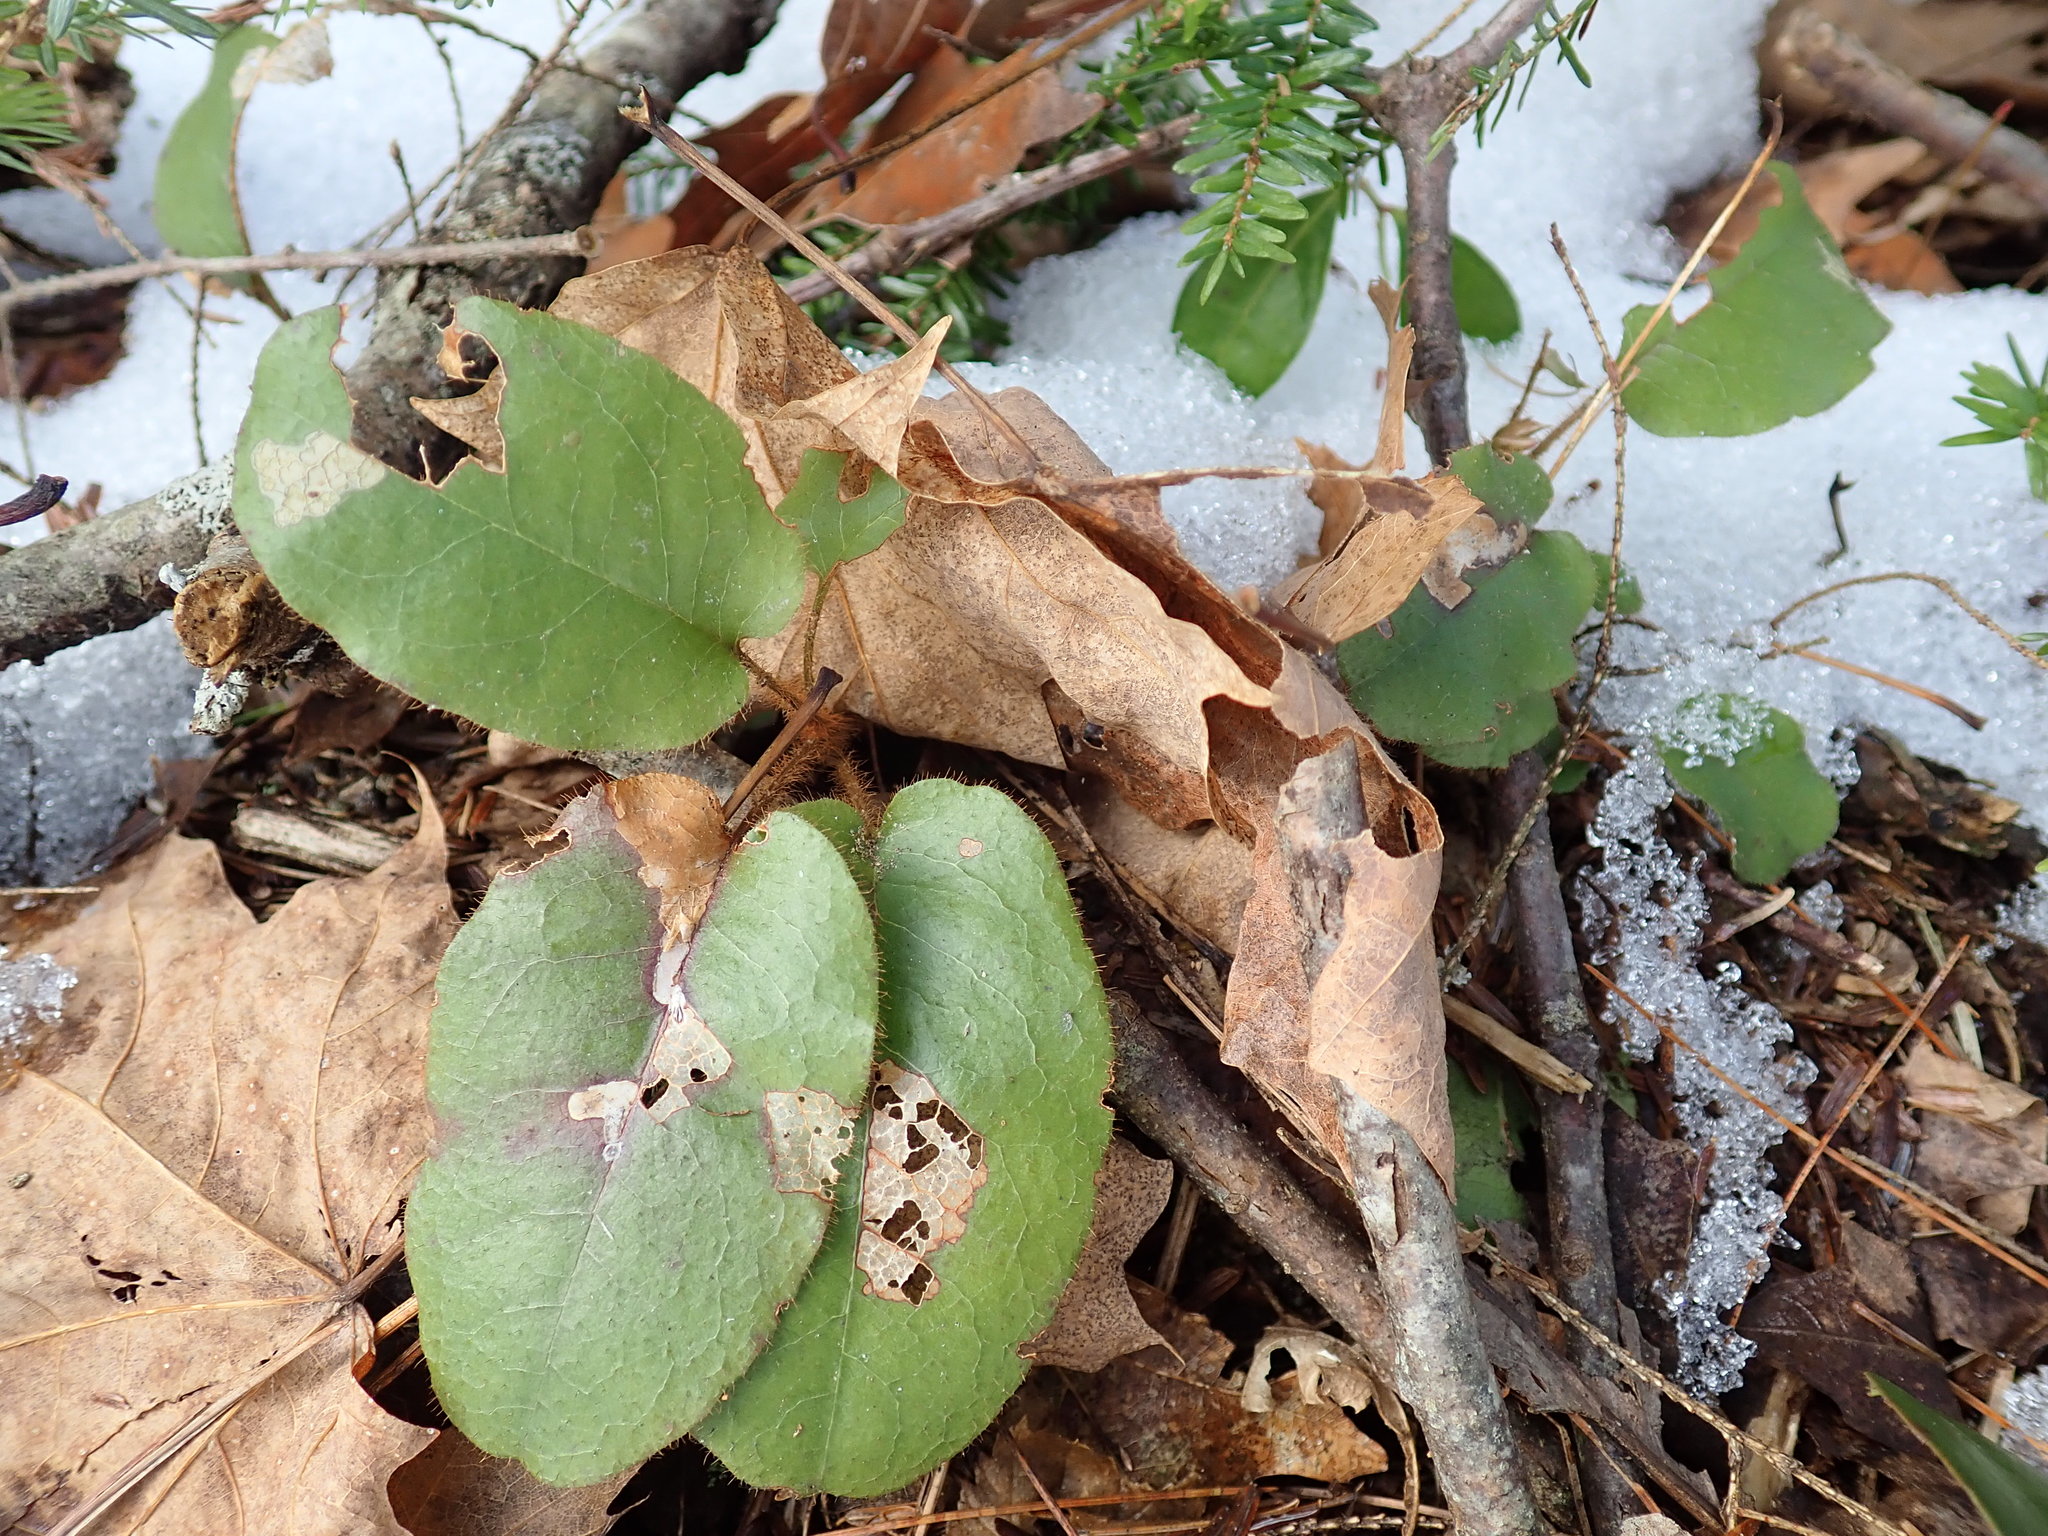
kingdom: Plantae
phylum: Tracheophyta
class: Magnoliopsida
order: Ericales
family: Ericaceae
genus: Epigaea
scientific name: Epigaea repens
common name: Gravelroot
